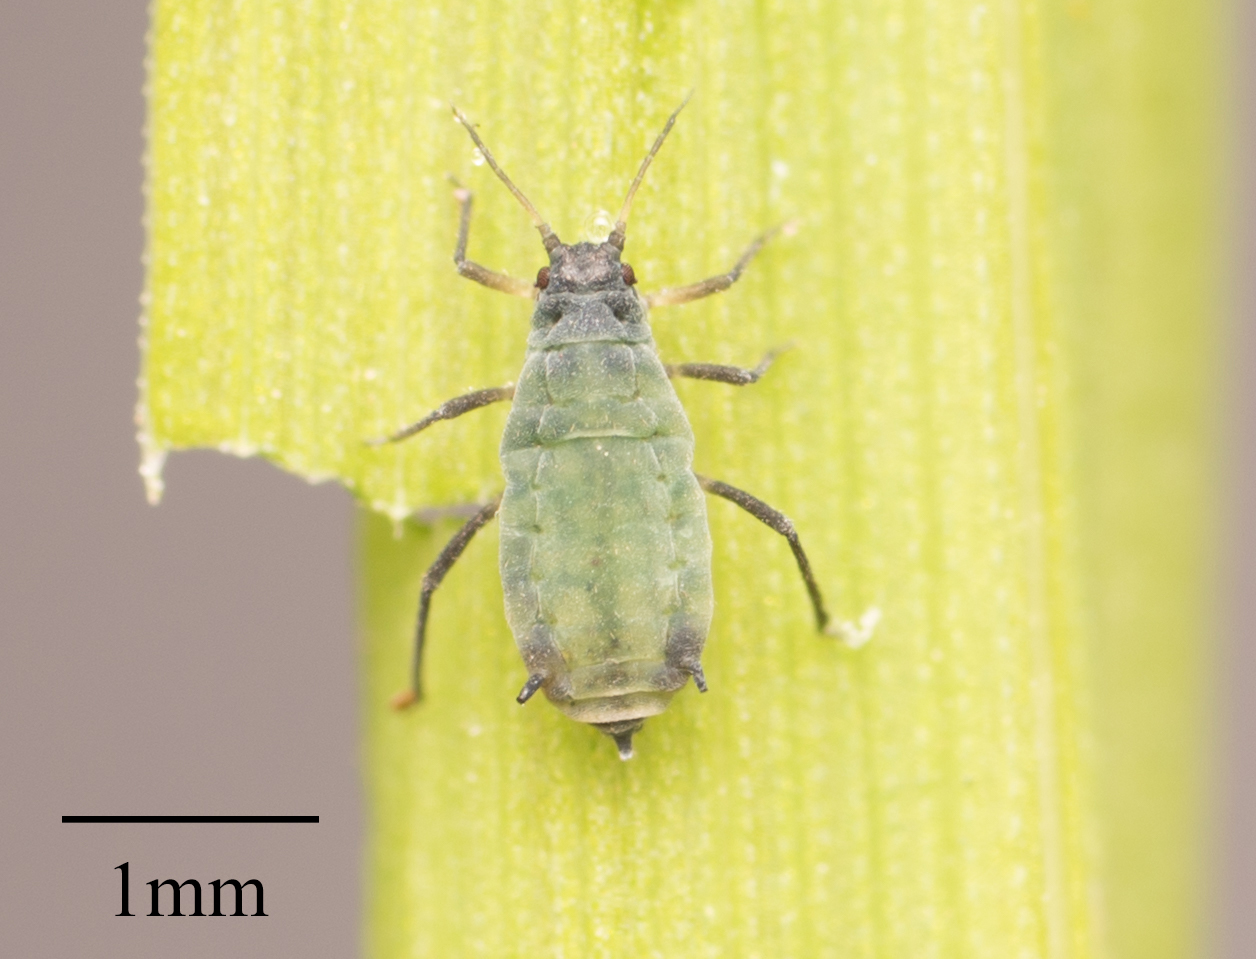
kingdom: Animalia
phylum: Arthropoda
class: Insecta
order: Hemiptera
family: Aphididae
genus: Rhopalosiphum
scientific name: Rhopalosiphum maidis
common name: Corn leaf aphid
